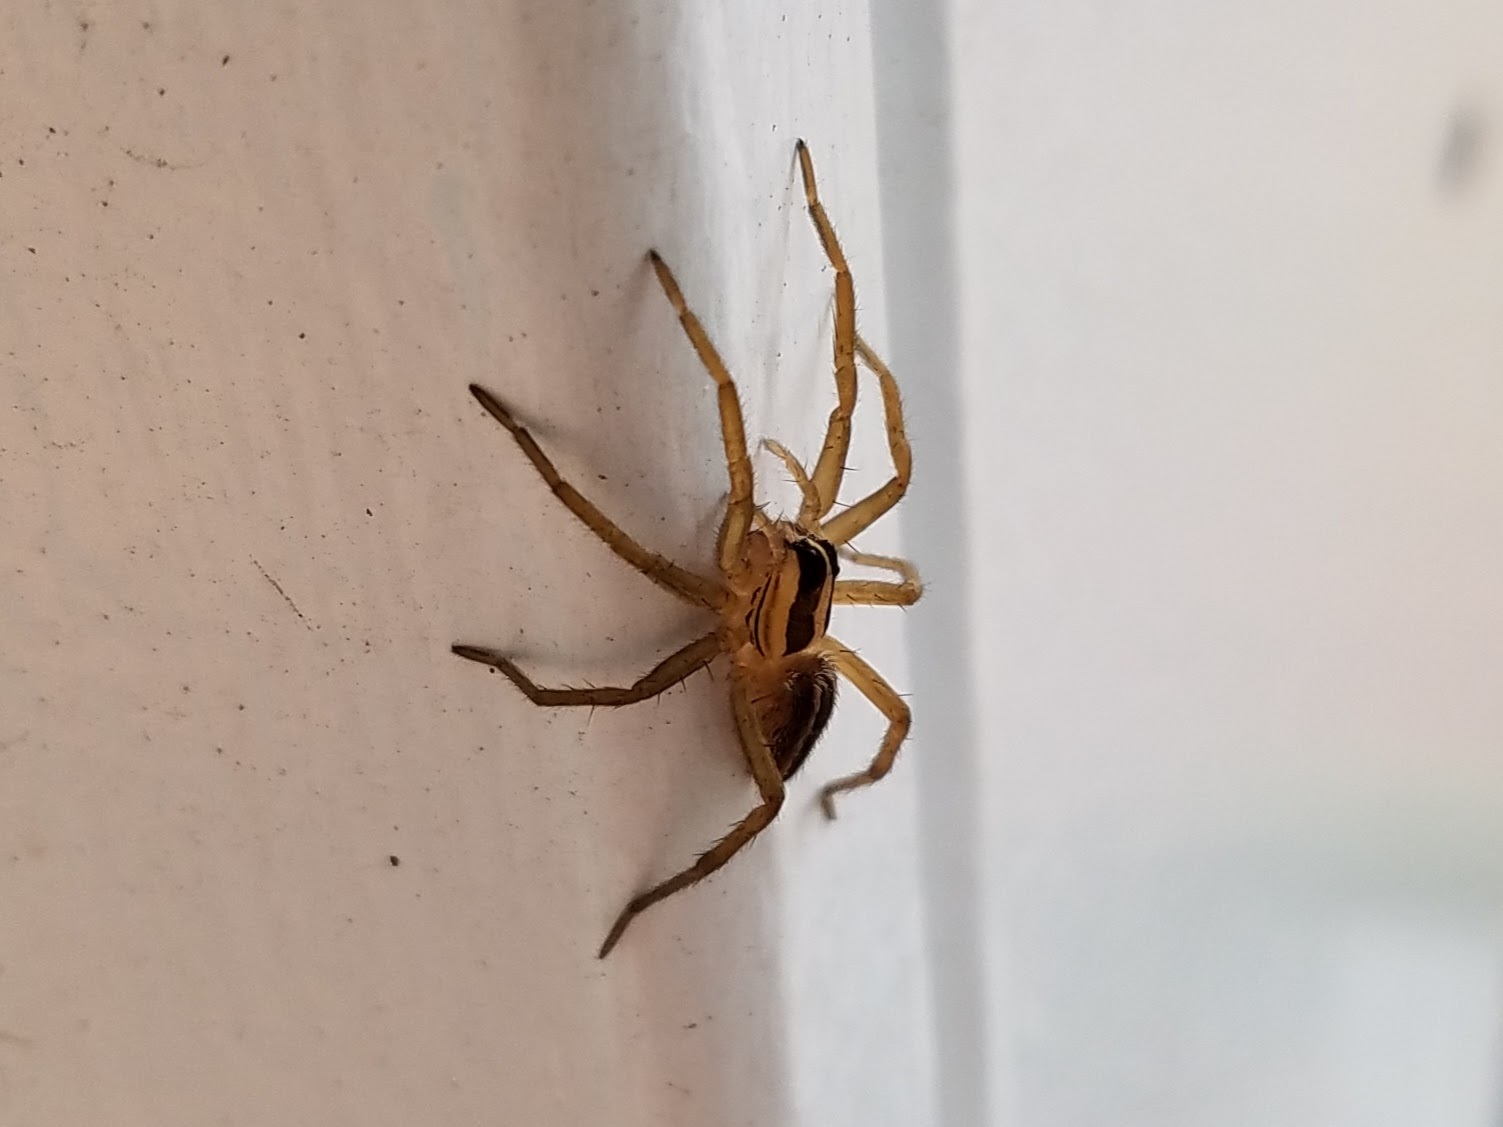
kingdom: Animalia
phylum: Arthropoda
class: Arachnida
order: Araneae
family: Lycosidae
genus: Rabidosa
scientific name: Rabidosa rabida
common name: Rabid wolf spider
